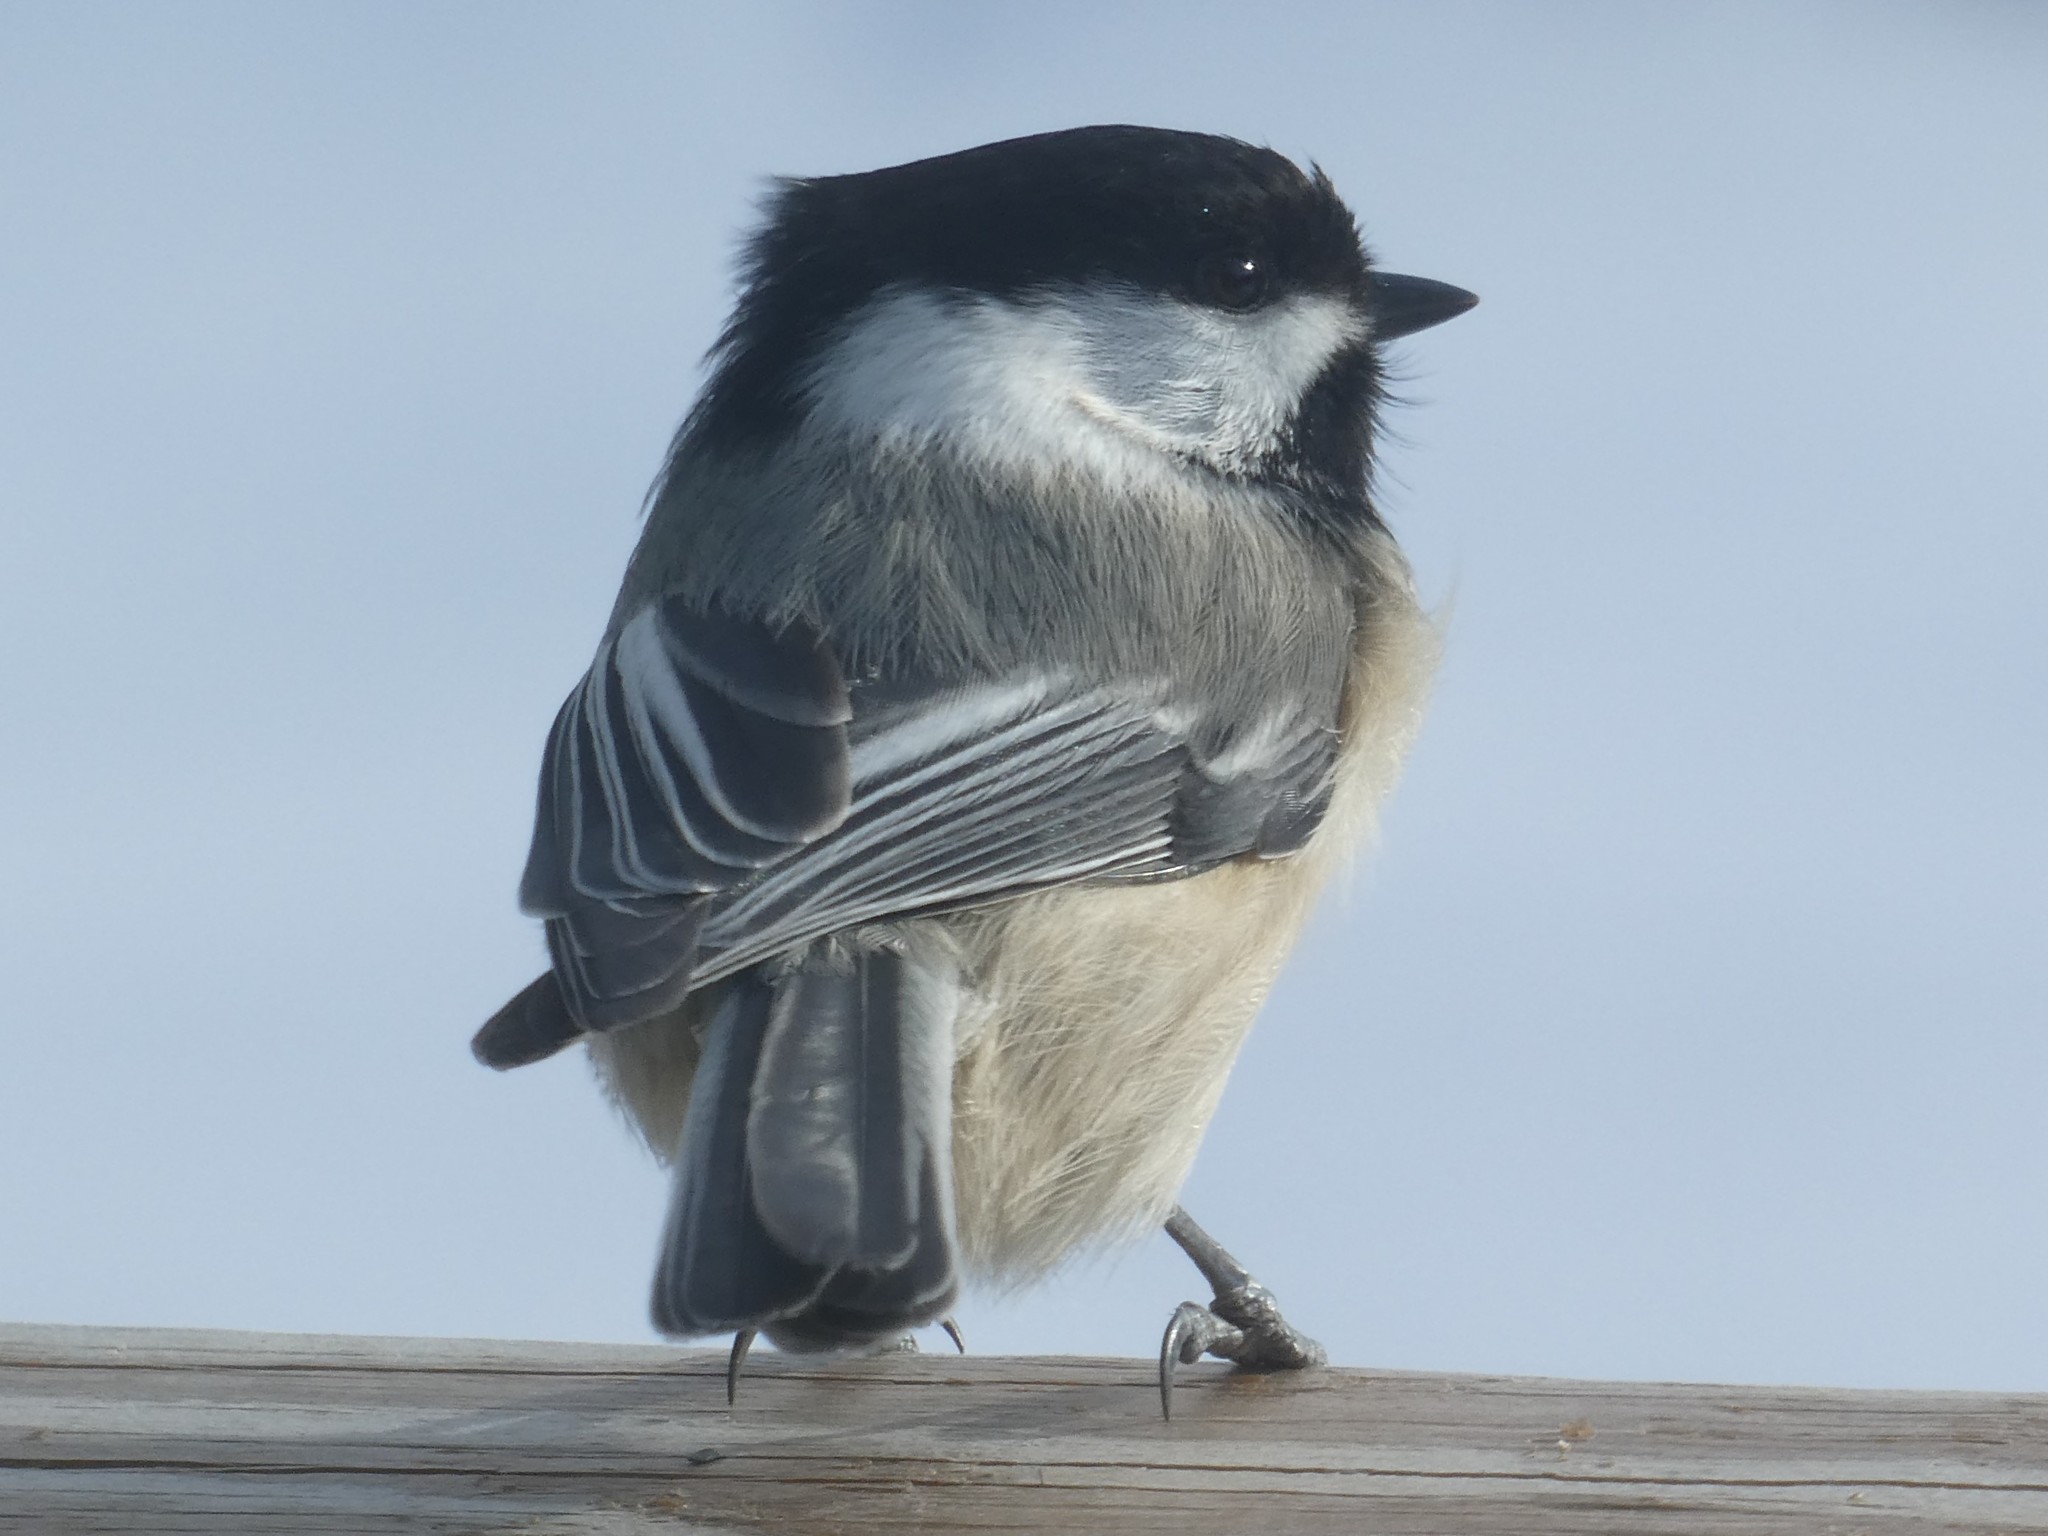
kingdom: Animalia
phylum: Chordata
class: Aves
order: Passeriformes
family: Paridae
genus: Poecile
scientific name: Poecile atricapillus
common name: Black-capped chickadee
